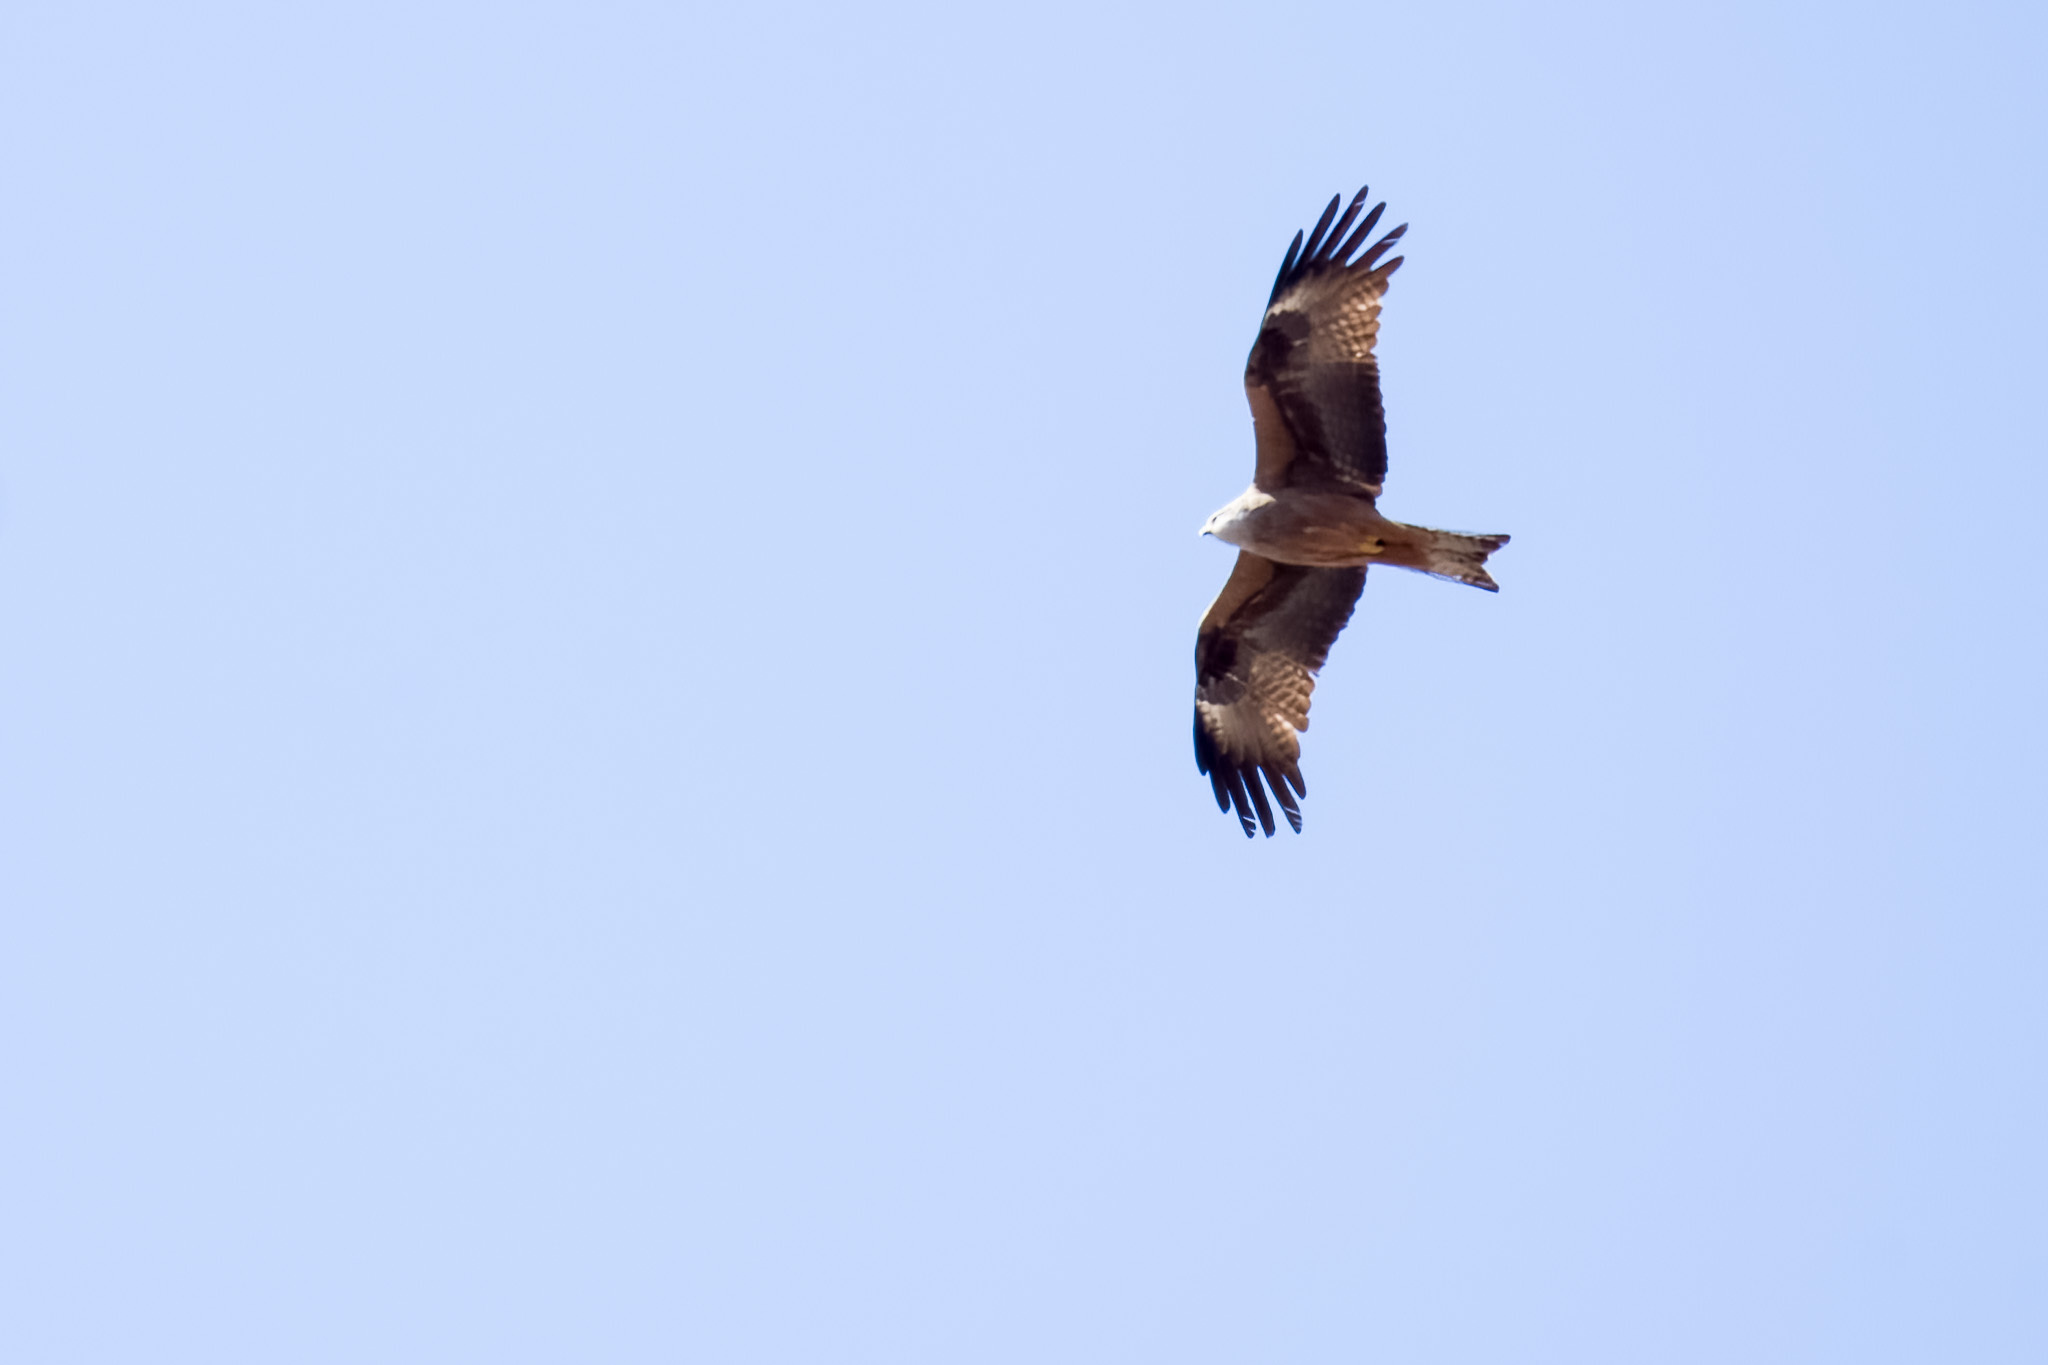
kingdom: Animalia
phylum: Chordata
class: Aves
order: Accipitriformes
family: Accipitridae
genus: Milvus
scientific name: Milvus migrans
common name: Black kite
